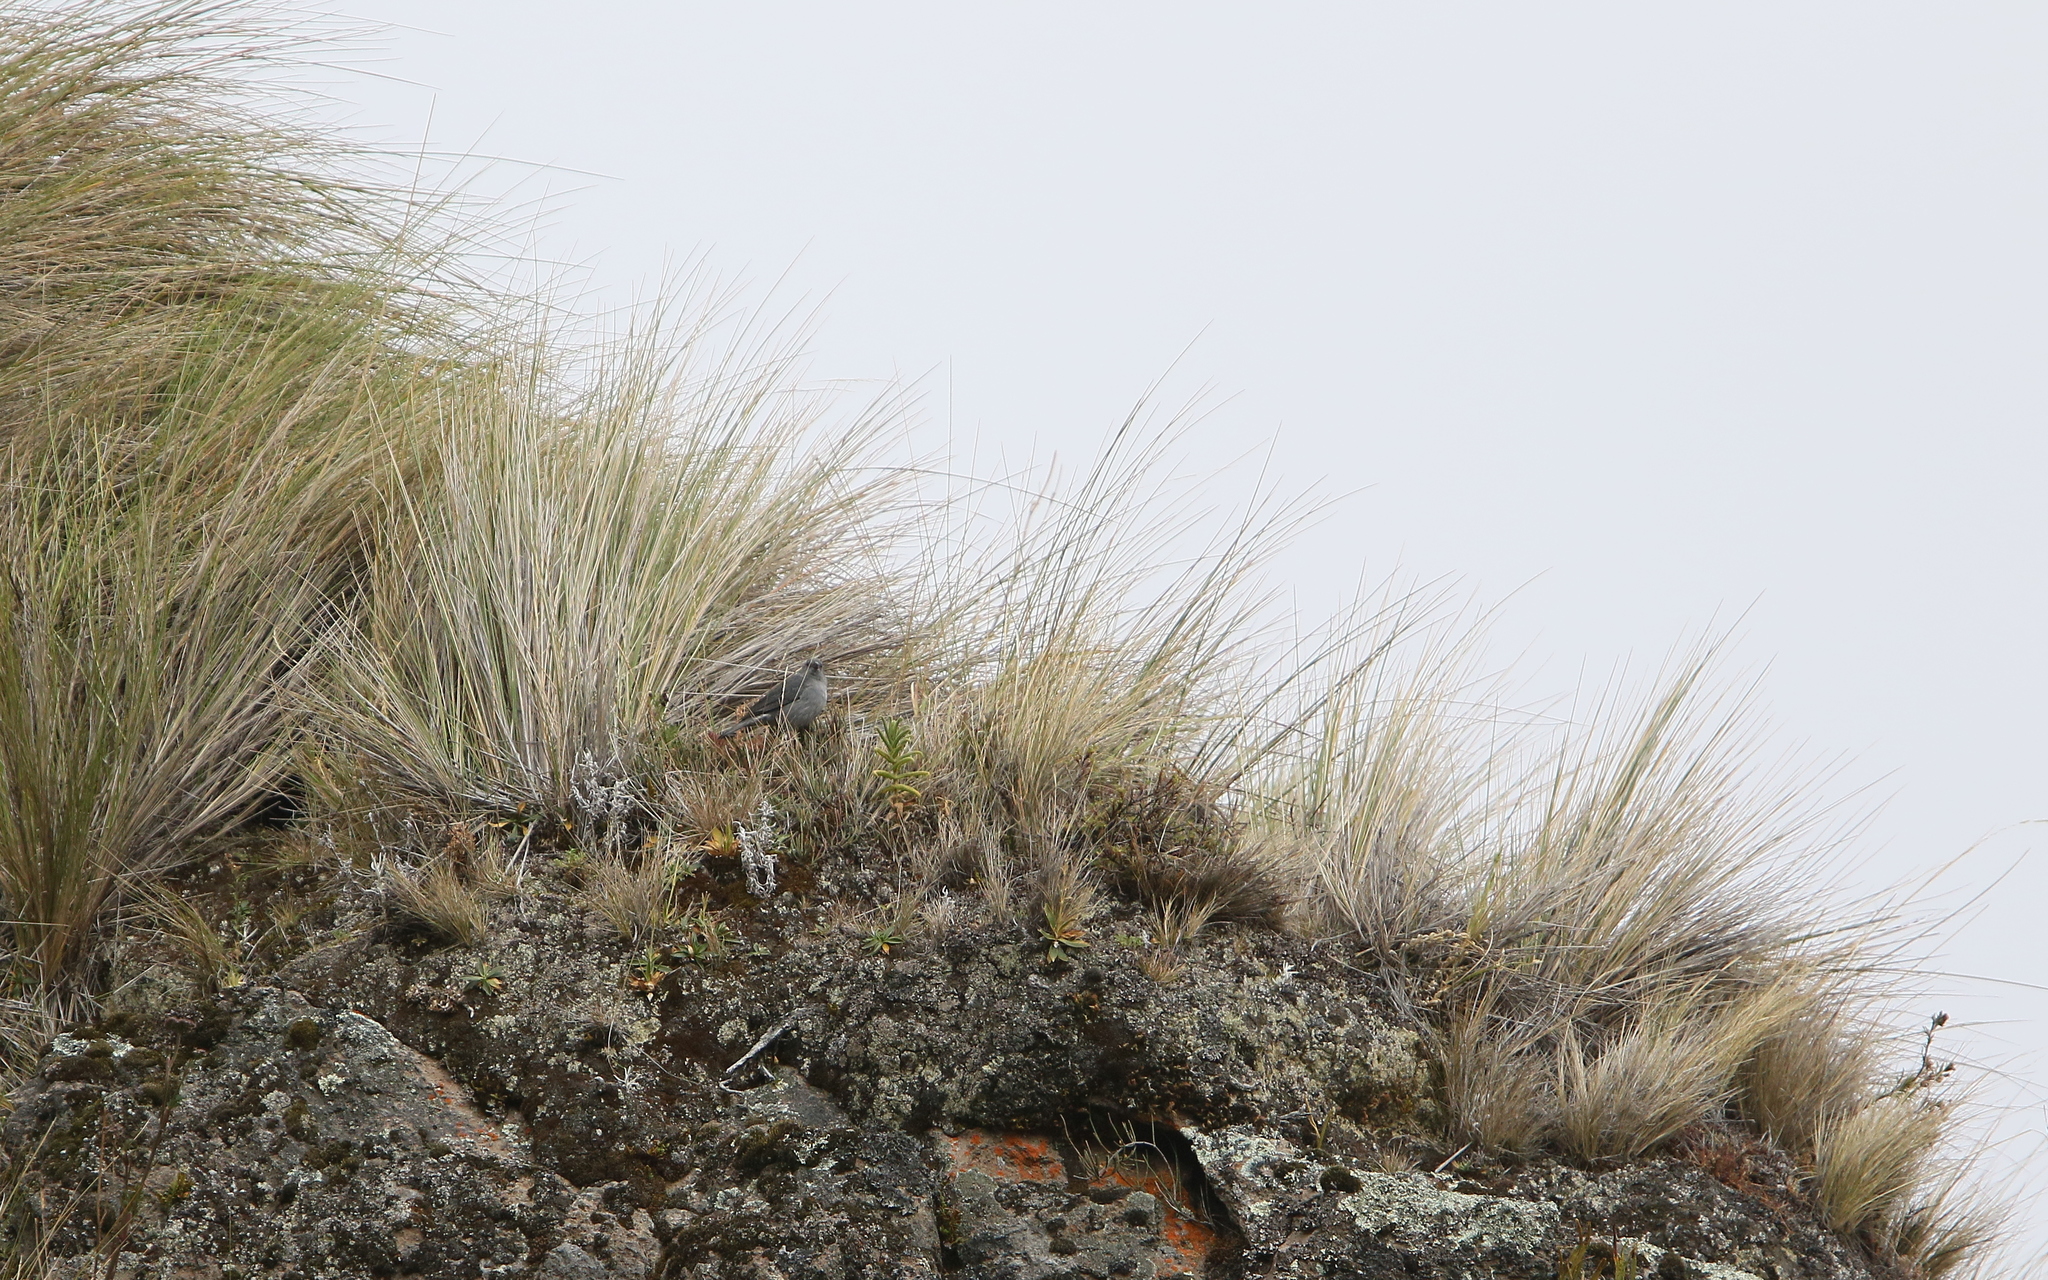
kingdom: Animalia
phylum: Chordata
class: Aves
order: Passeriformes
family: Thraupidae
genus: Geospizopsis
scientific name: Geospizopsis unicolor
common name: Plumbeous sierra-finch
